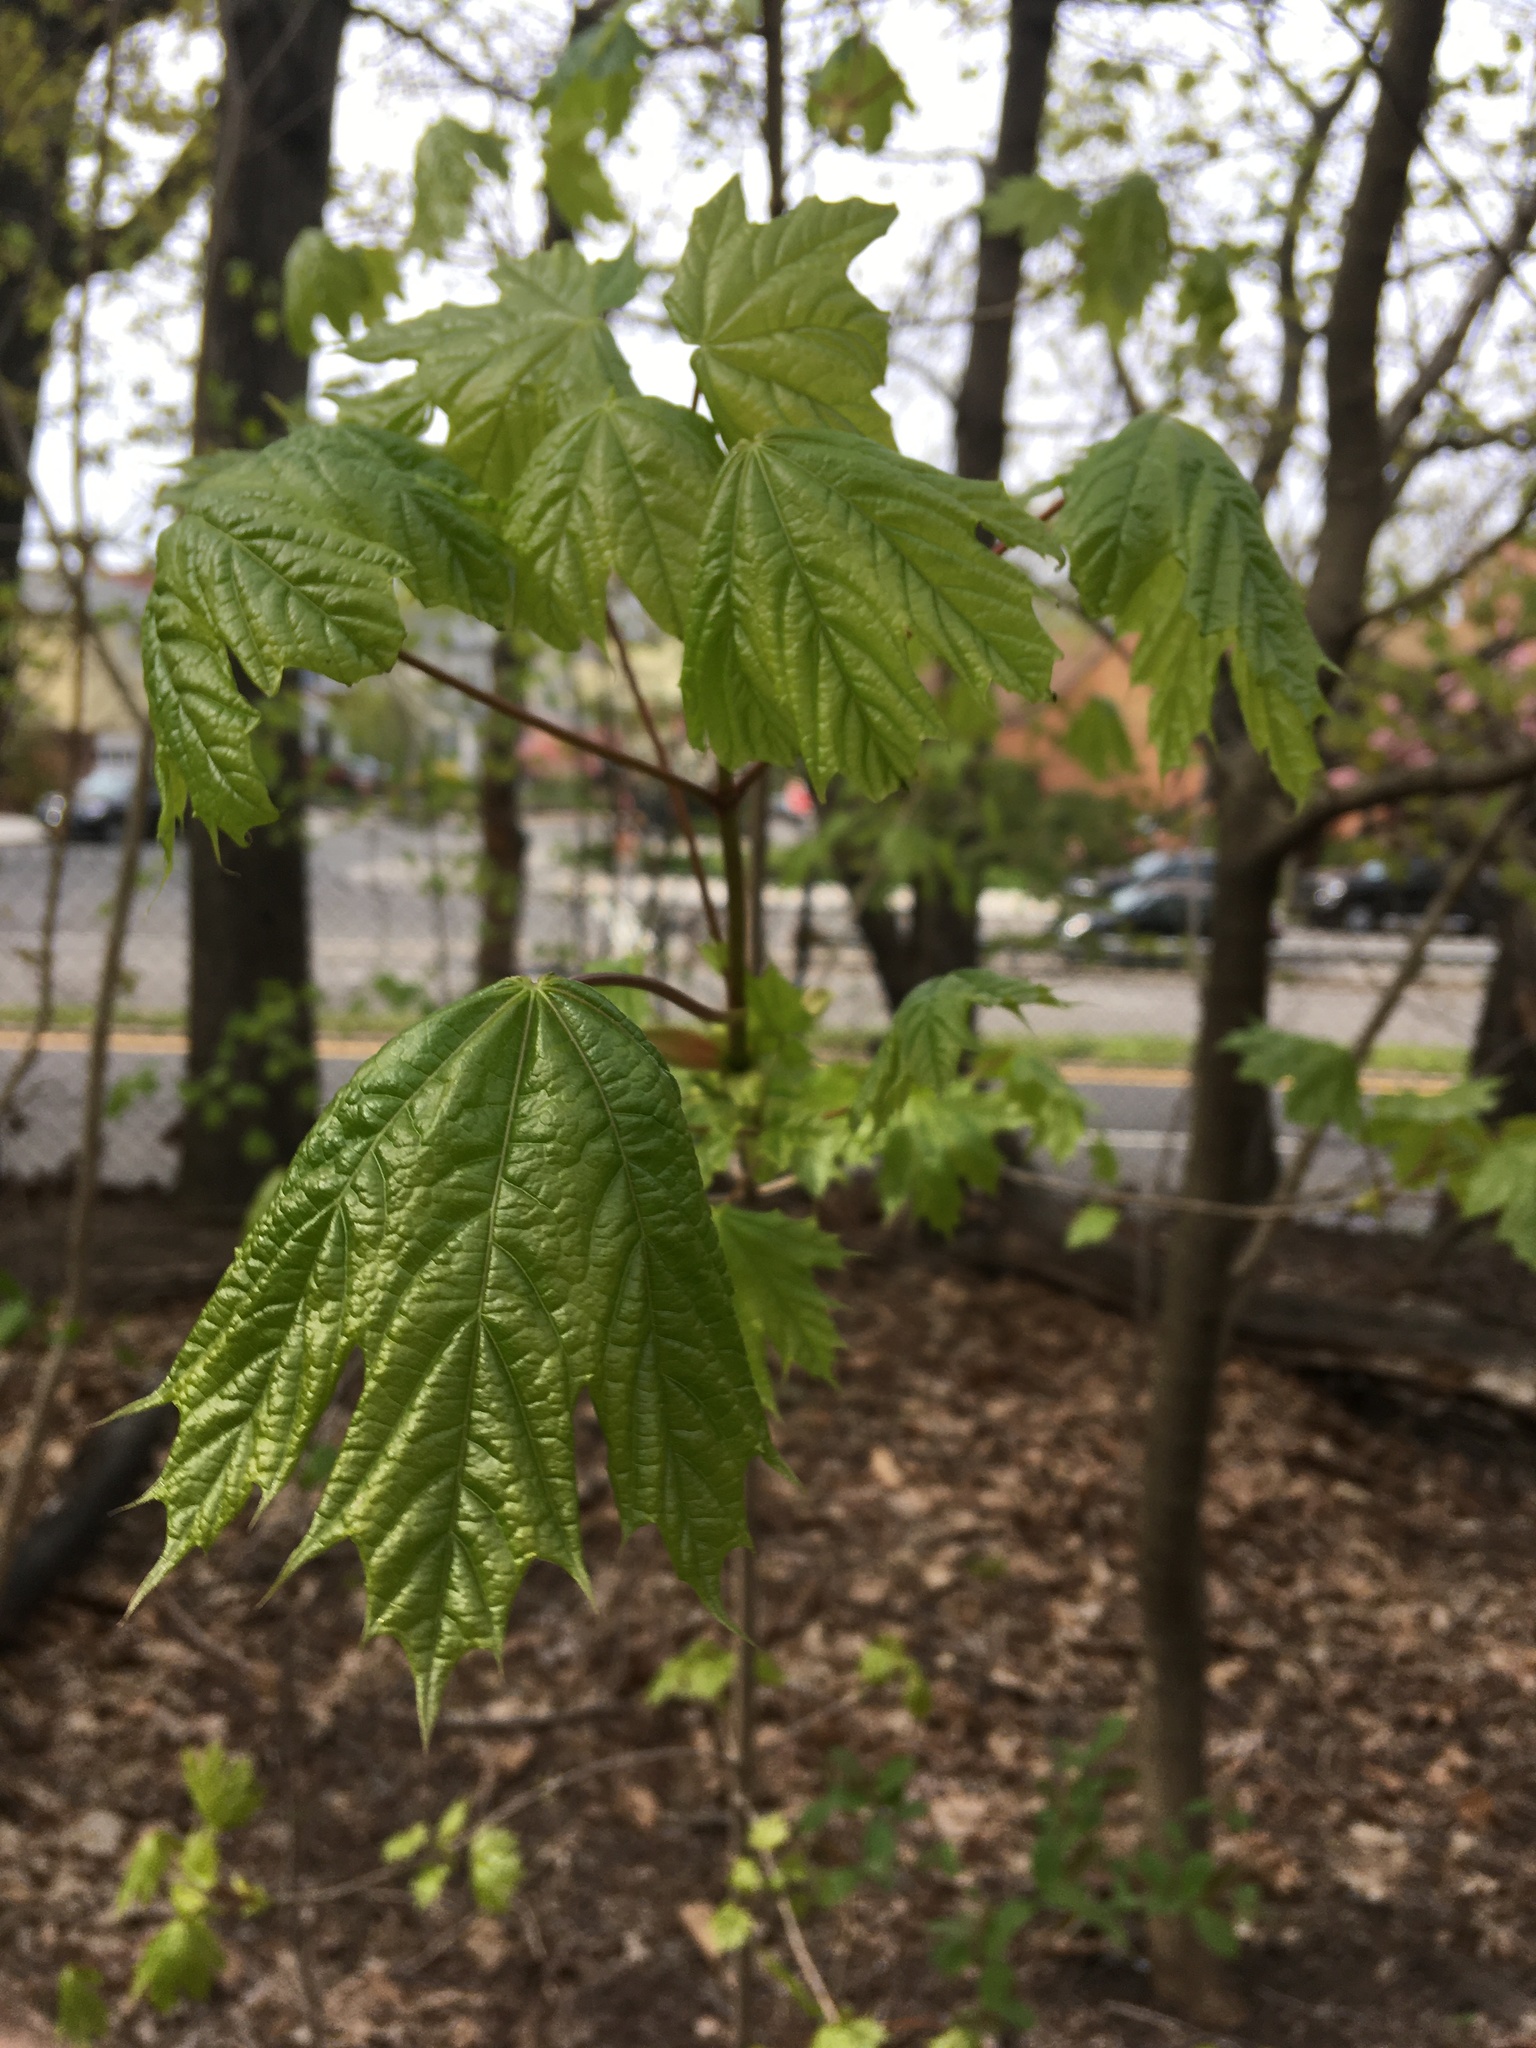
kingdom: Plantae
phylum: Tracheophyta
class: Magnoliopsida
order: Sapindales
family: Sapindaceae
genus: Acer
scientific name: Acer platanoides
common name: Norway maple
